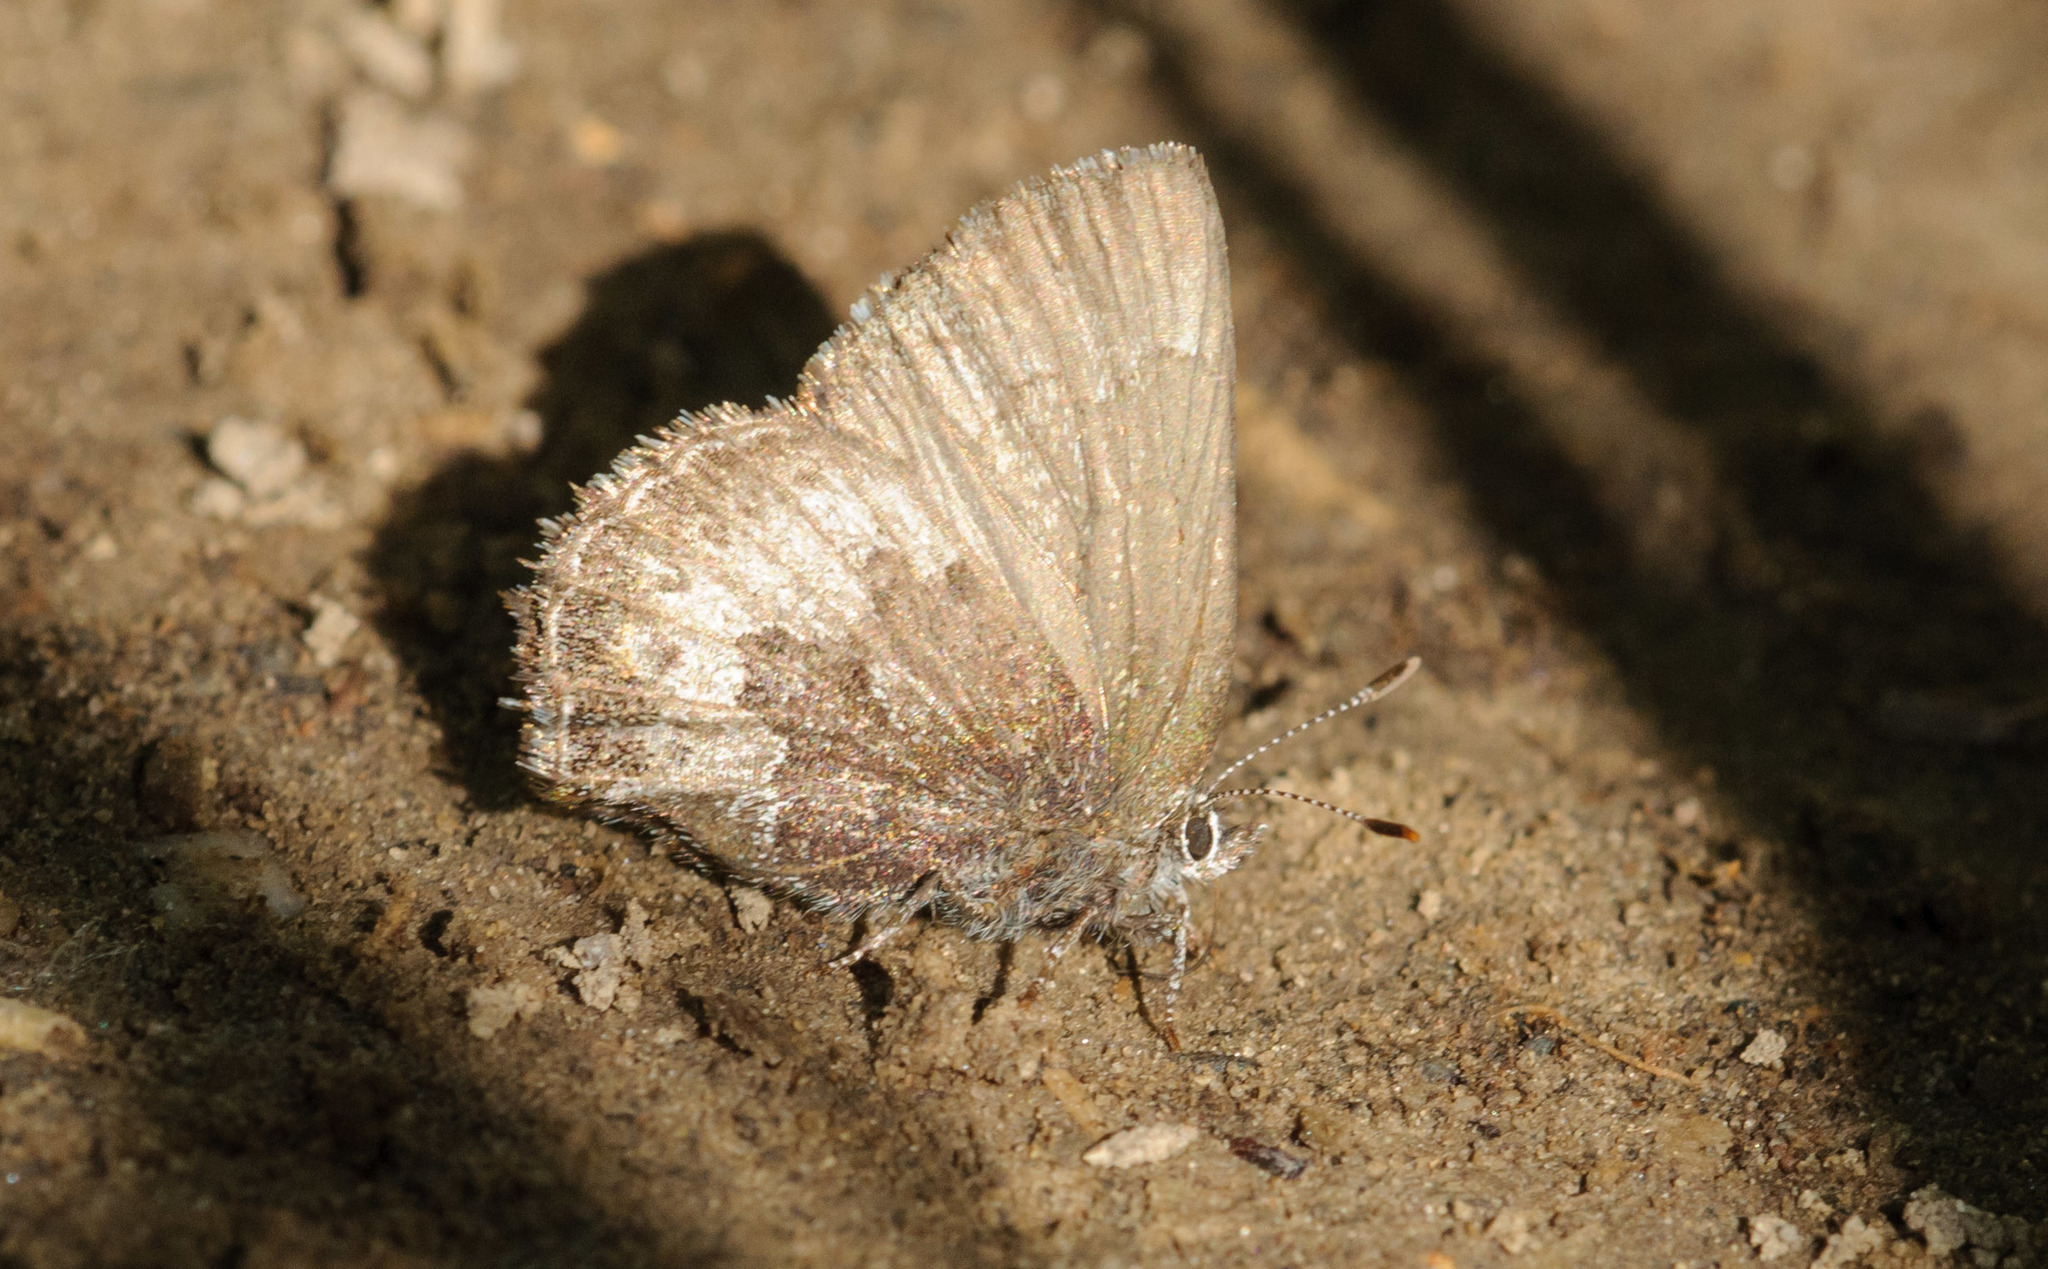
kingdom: Animalia
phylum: Arthropoda
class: Insecta
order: Lepidoptera
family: Lycaenidae
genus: Incisalia
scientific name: Incisalia irioides
